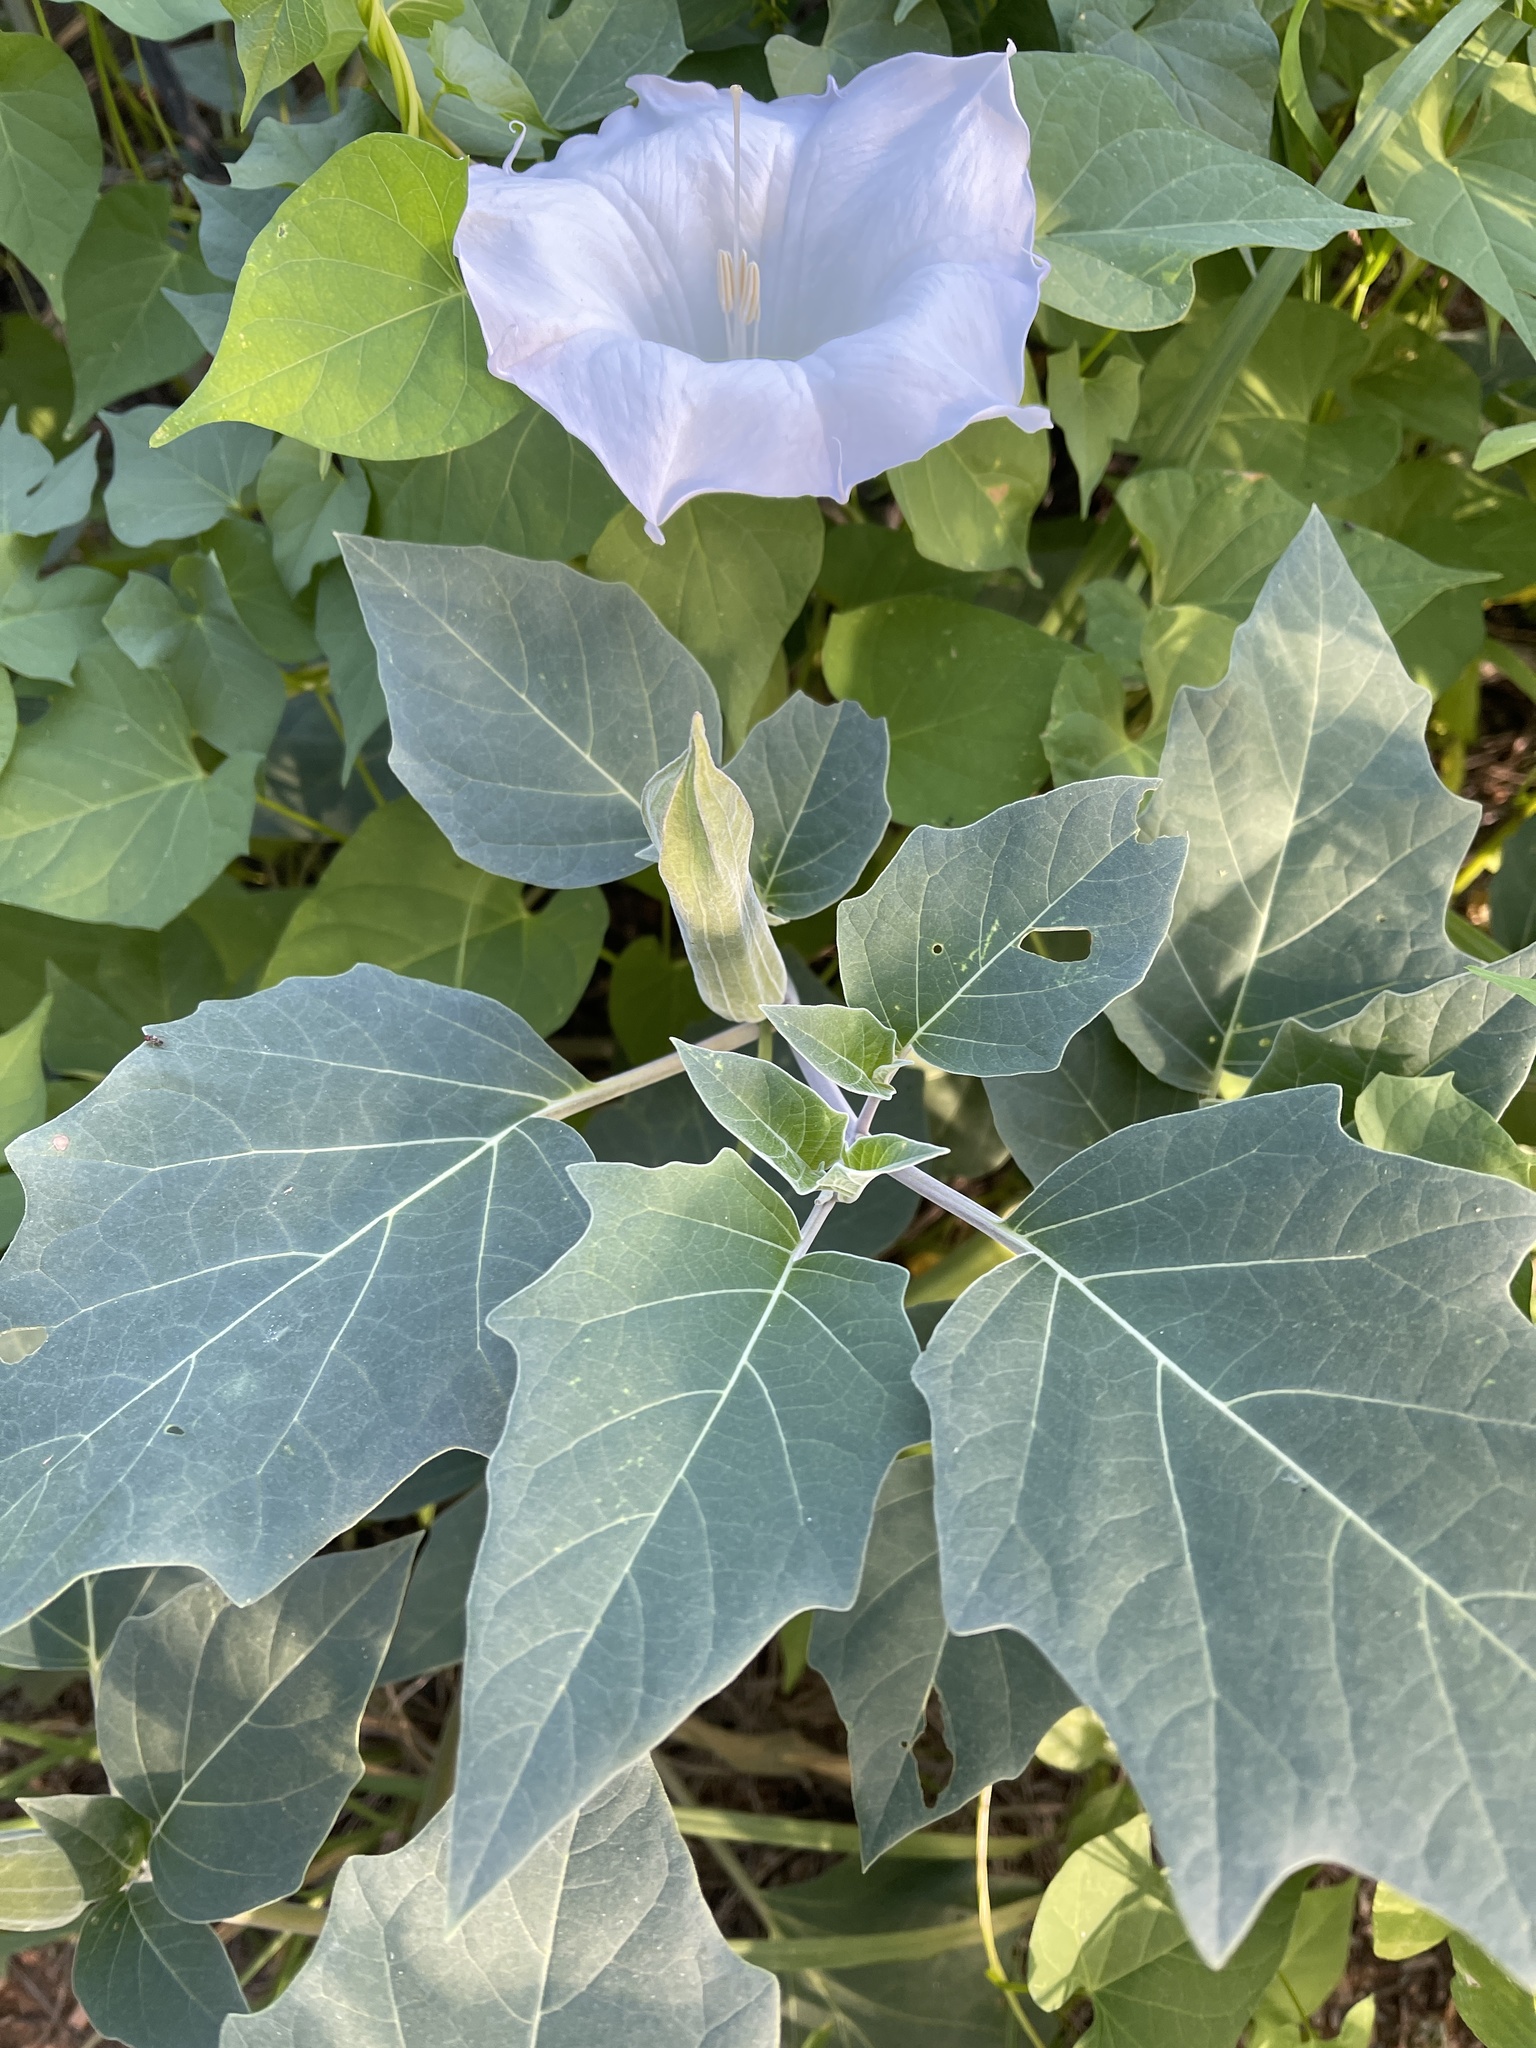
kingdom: Plantae
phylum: Tracheophyta
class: Magnoliopsida
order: Solanales
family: Solanaceae
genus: Datura
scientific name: Datura wrightii
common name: Sacred thorn-apple
